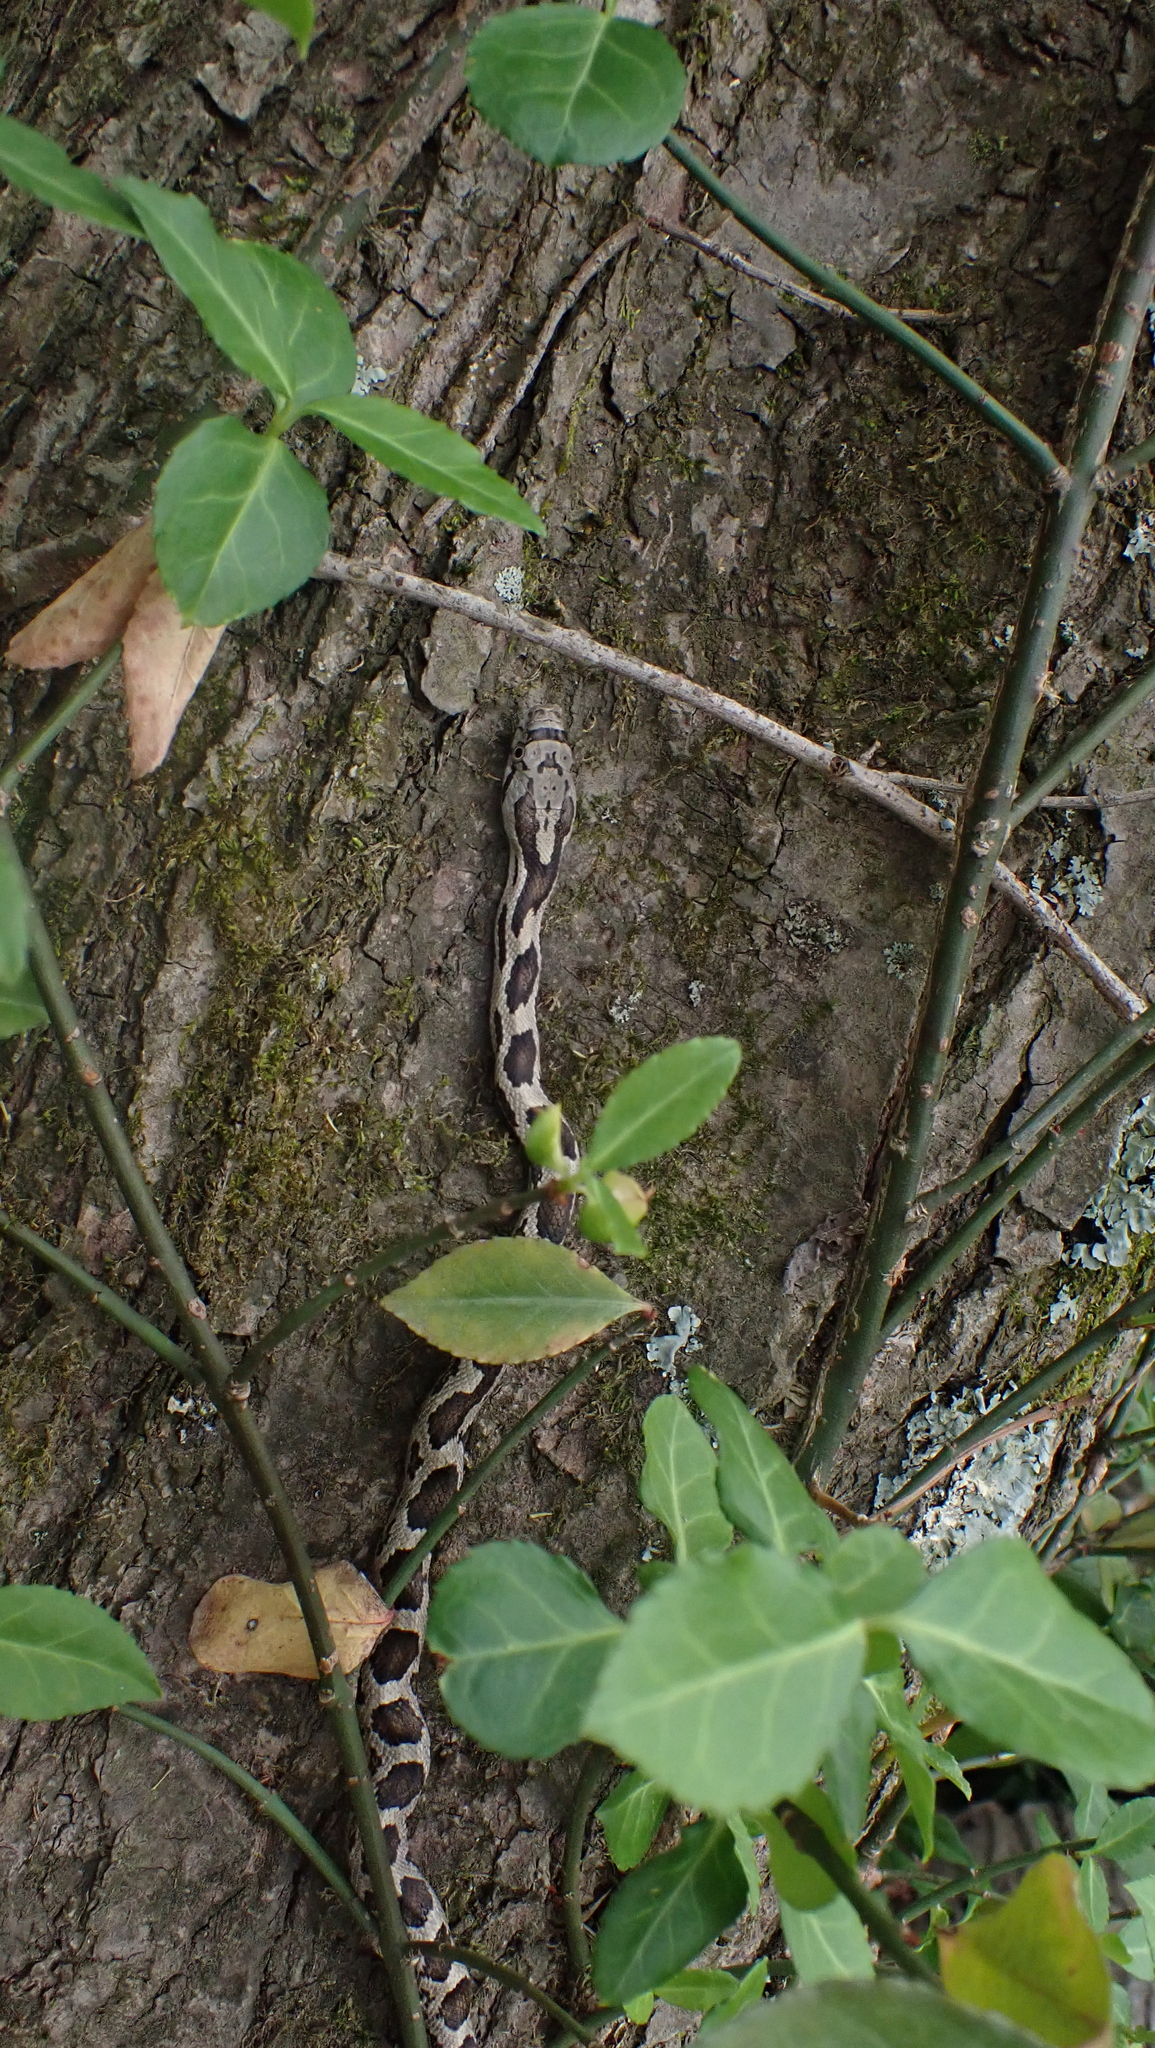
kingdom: Animalia
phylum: Chordata
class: Squamata
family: Colubridae
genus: Pantherophis
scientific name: Pantherophis spiloides
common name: Gray rat snake
